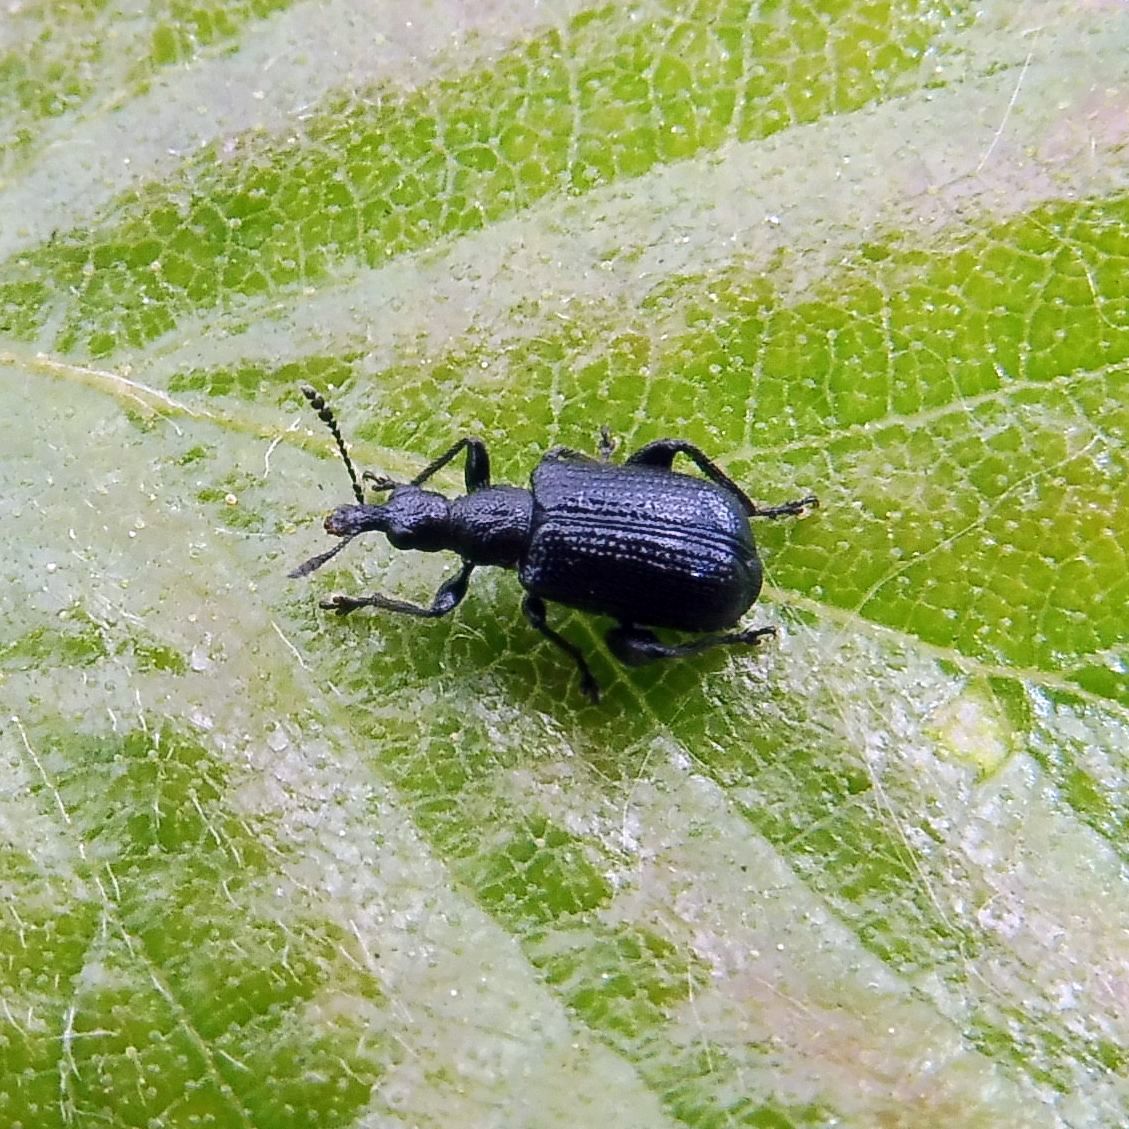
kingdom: Animalia
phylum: Arthropoda
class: Insecta
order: Coleoptera
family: Attelabidae
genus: Deporaus
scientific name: Deporaus betulae
